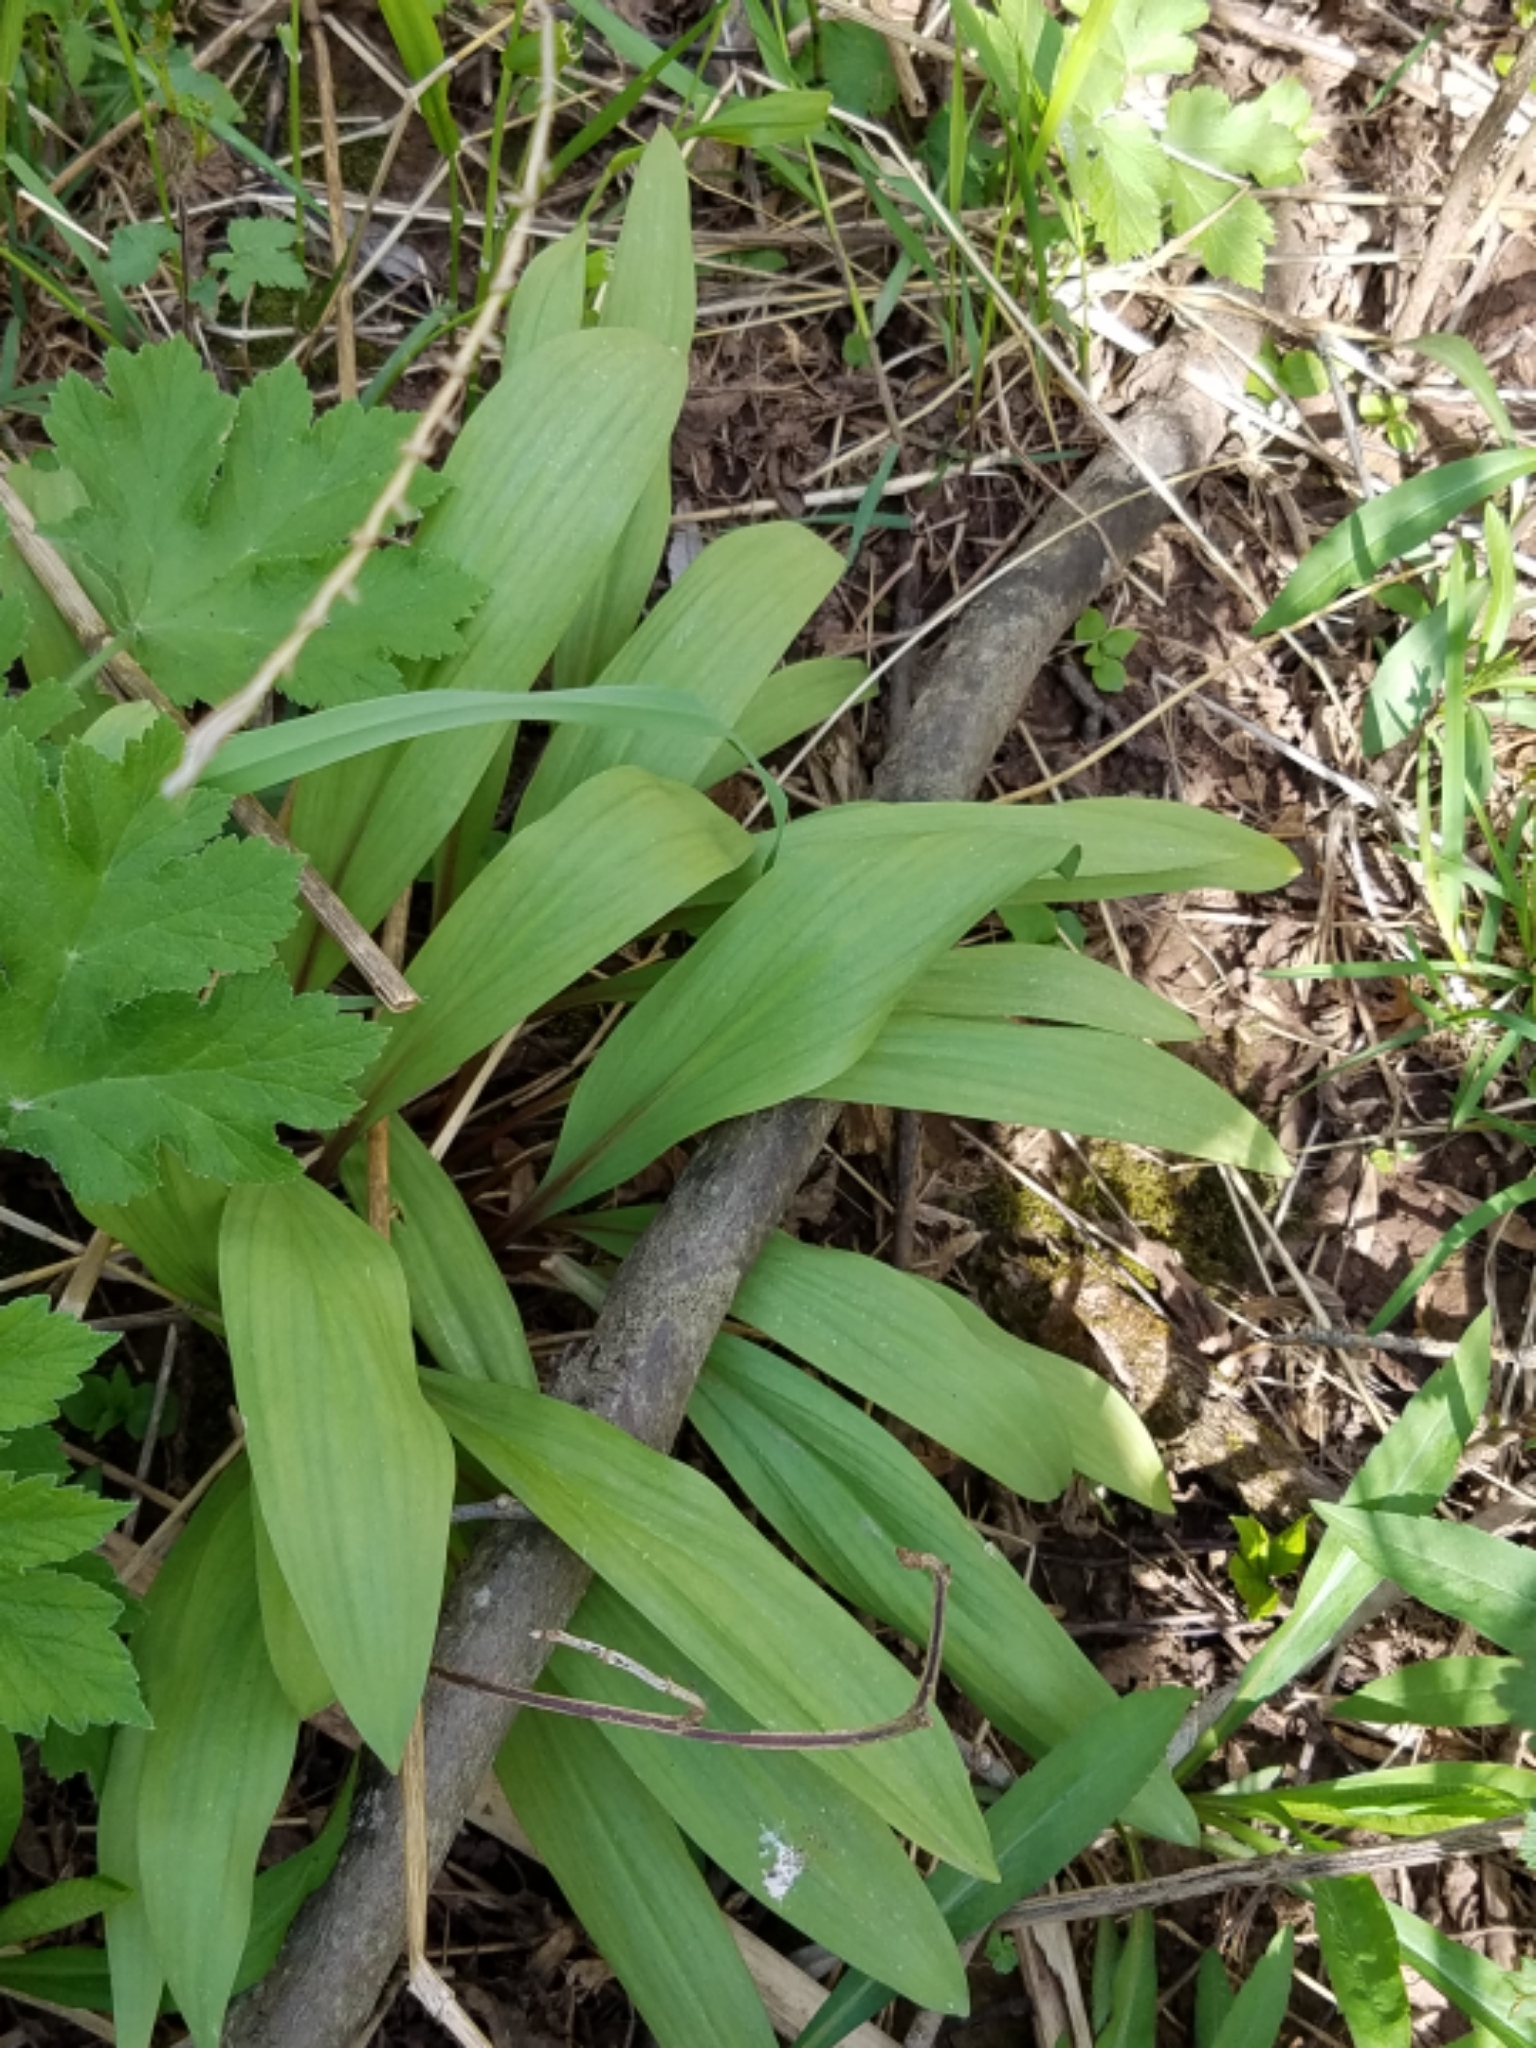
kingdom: Plantae
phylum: Tracheophyta
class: Liliopsida
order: Asparagales
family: Amaryllidaceae
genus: Allium
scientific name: Allium tricoccum
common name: Ramp
